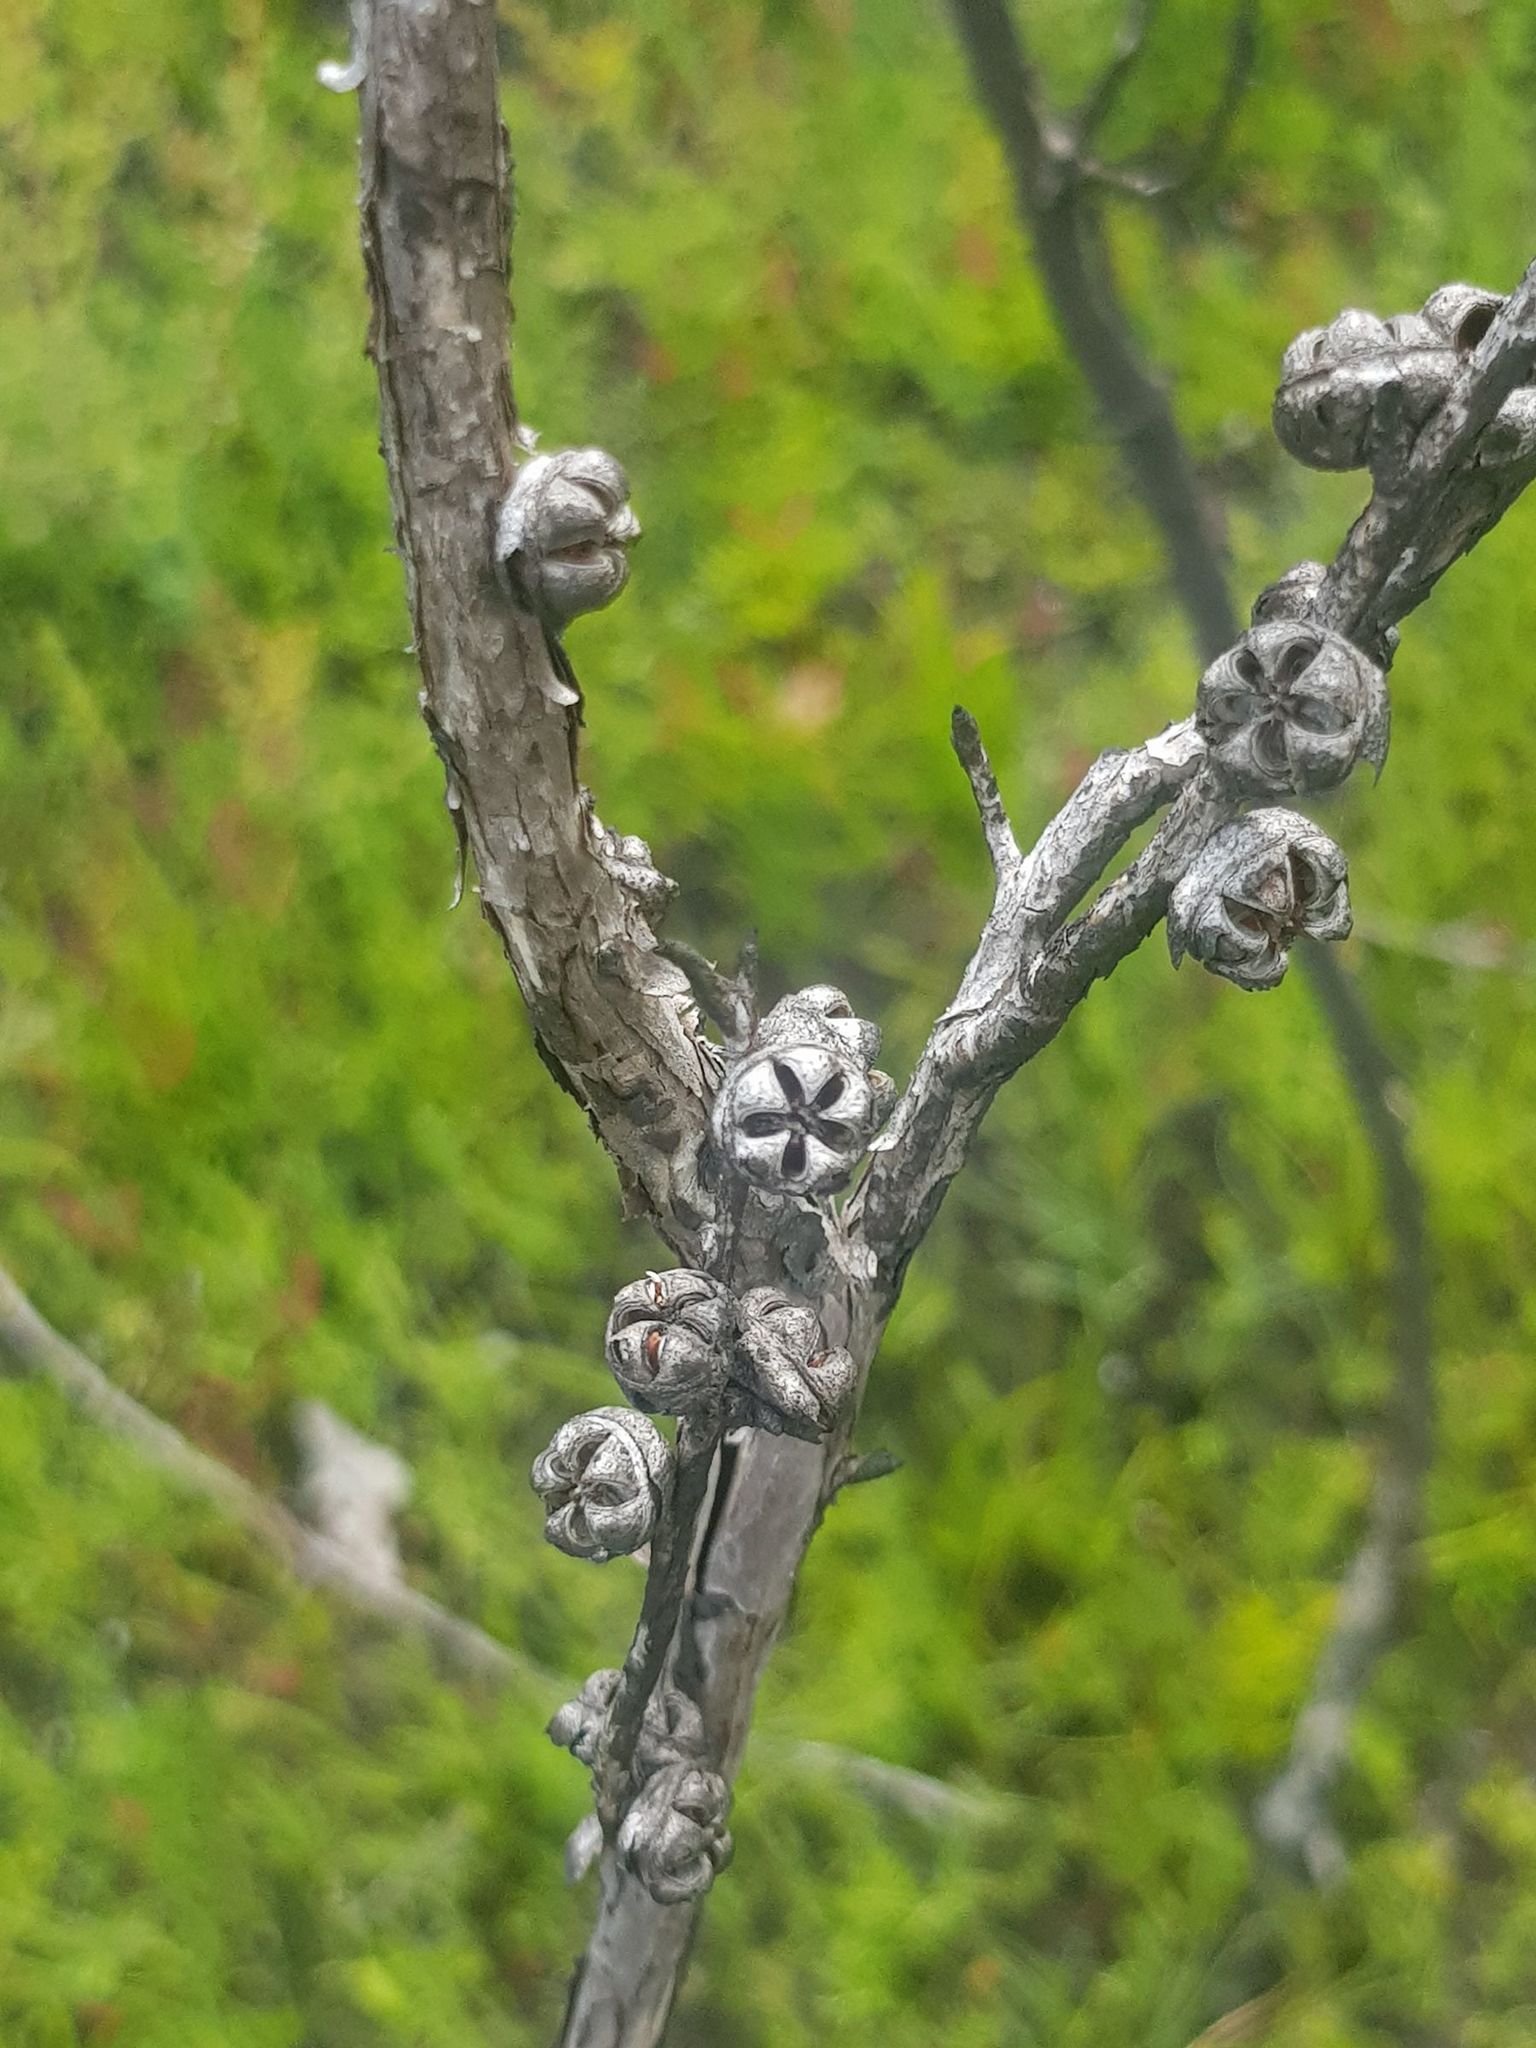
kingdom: Plantae
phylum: Tracheophyta
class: Magnoliopsida
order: Myrtales
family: Myrtaceae
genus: Leptospermum
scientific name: Leptospermum scoparium
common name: Broom tea-tree
